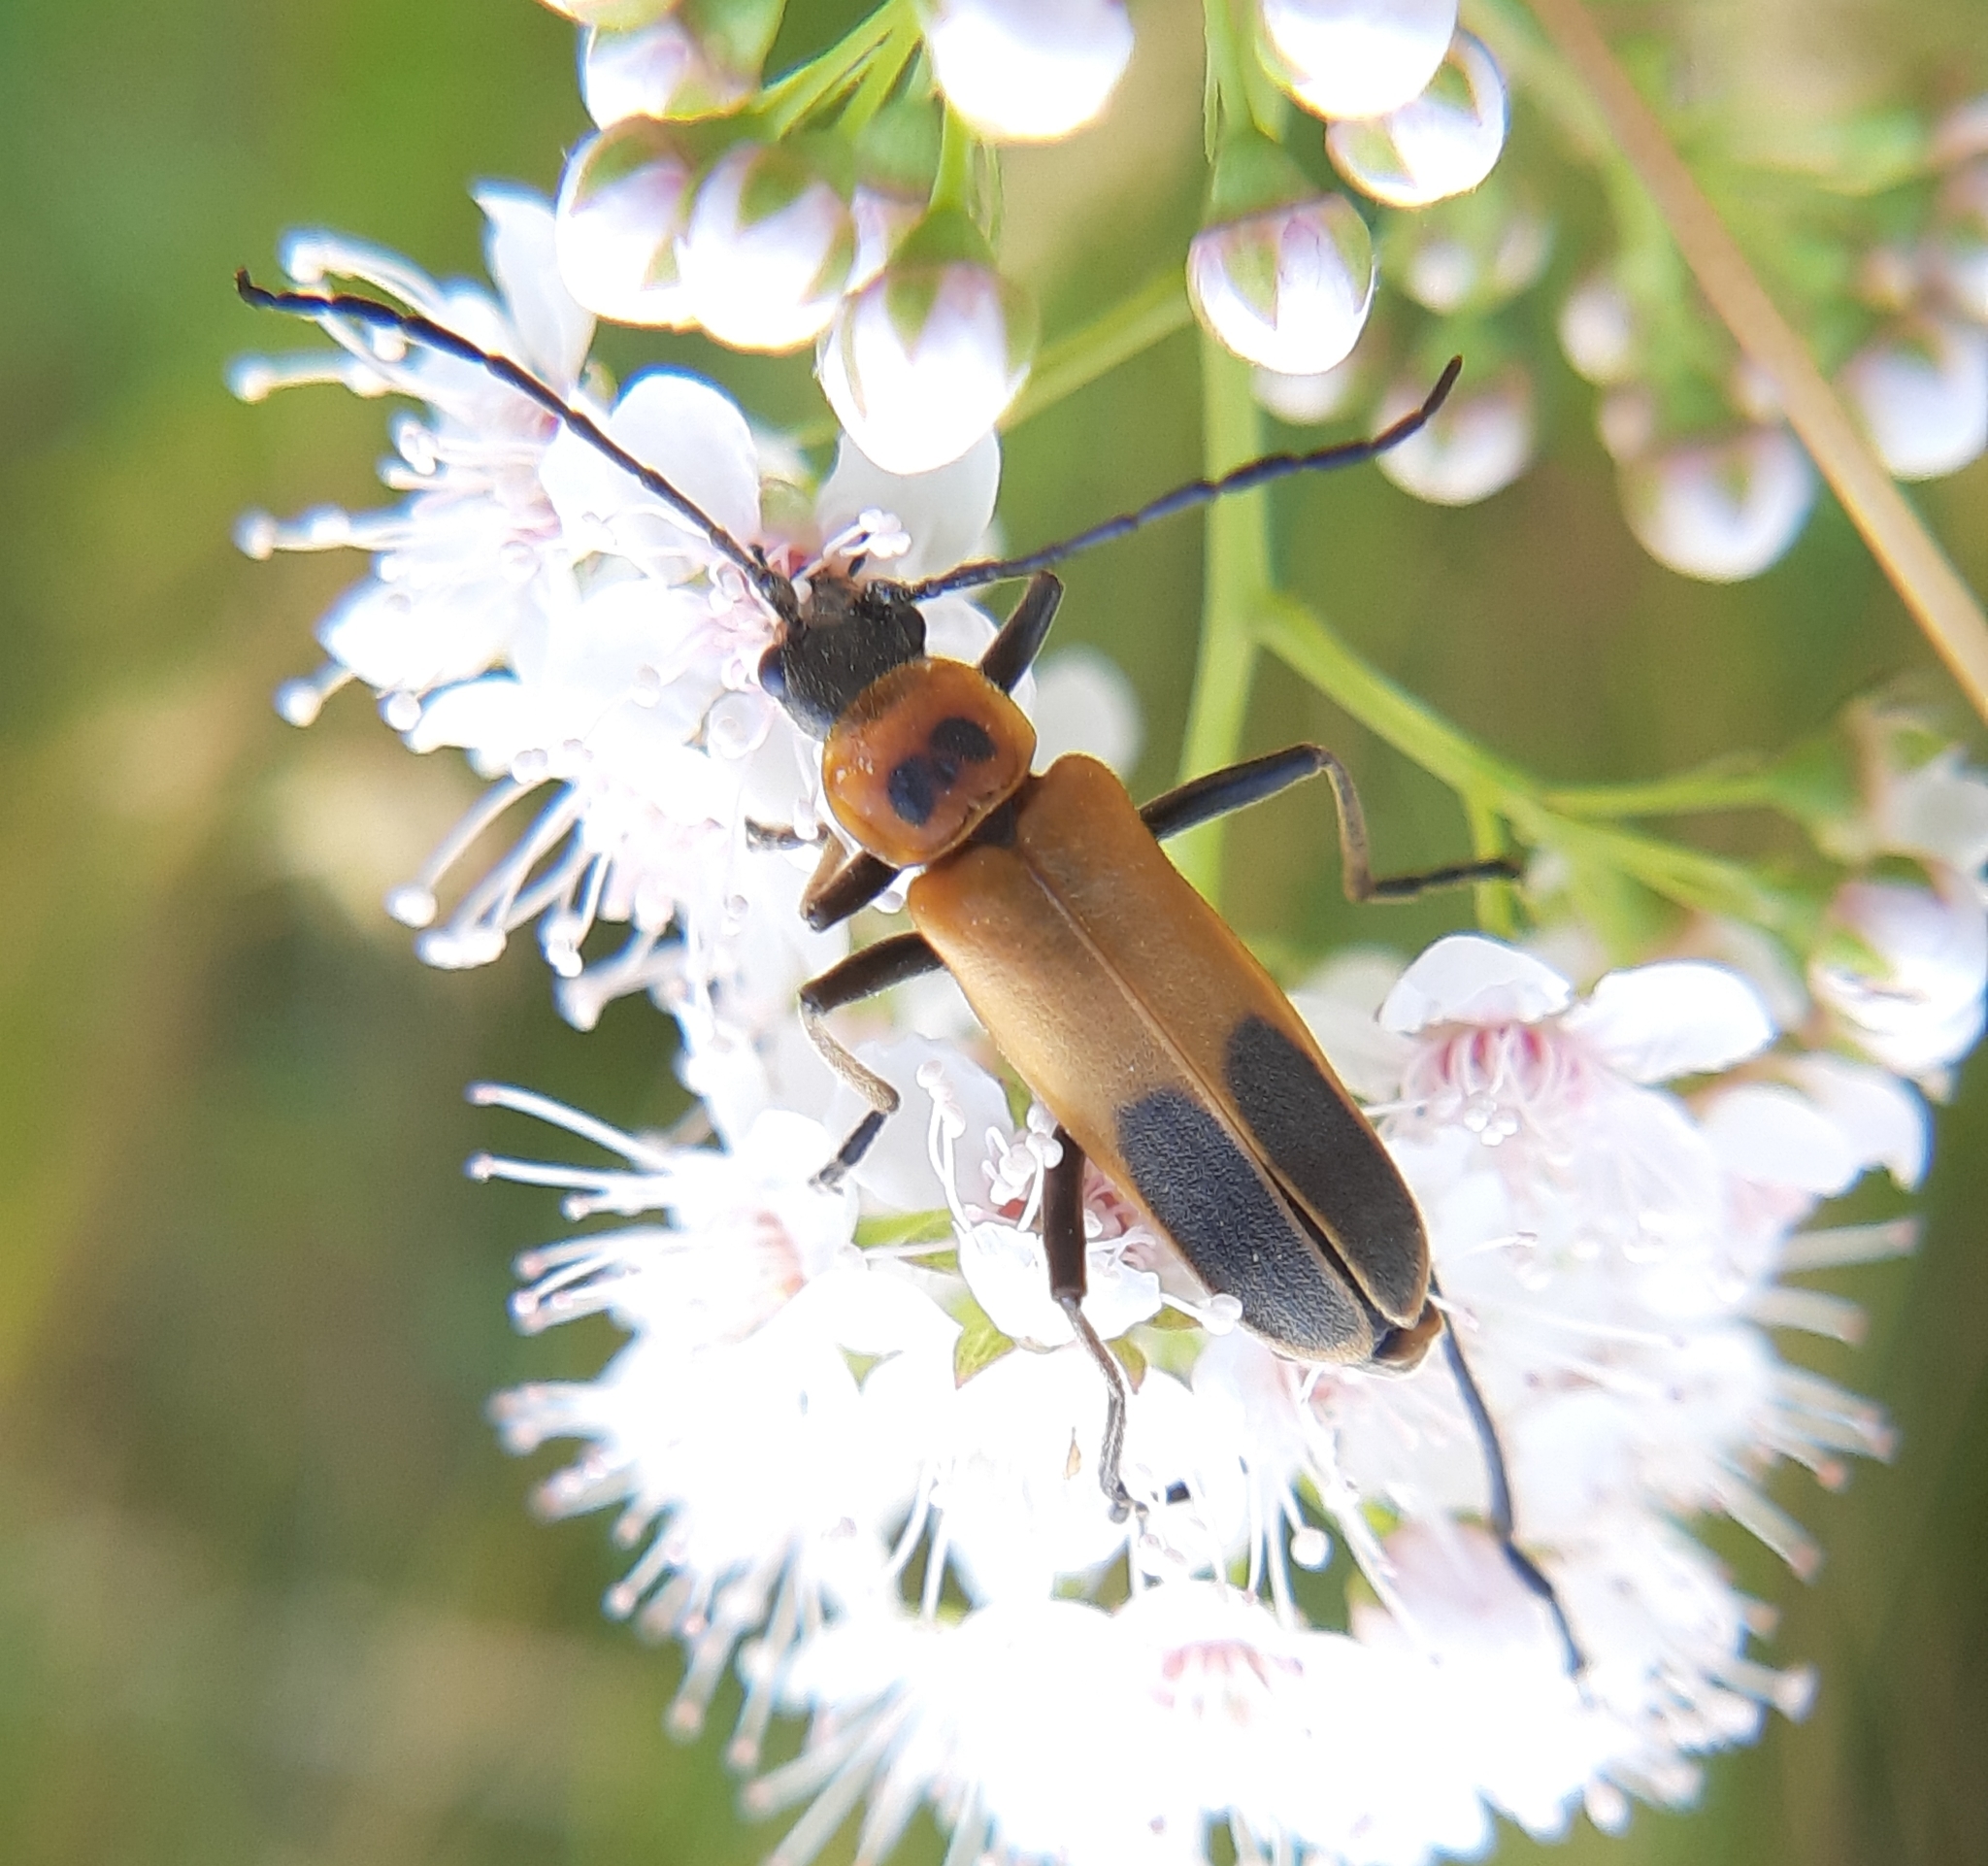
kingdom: Animalia
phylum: Arthropoda
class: Insecta
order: Coleoptera
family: Cantharidae
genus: Chauliognathus
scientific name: Chauliognathus pensylvanicus
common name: Goldenrod soldier beetle
